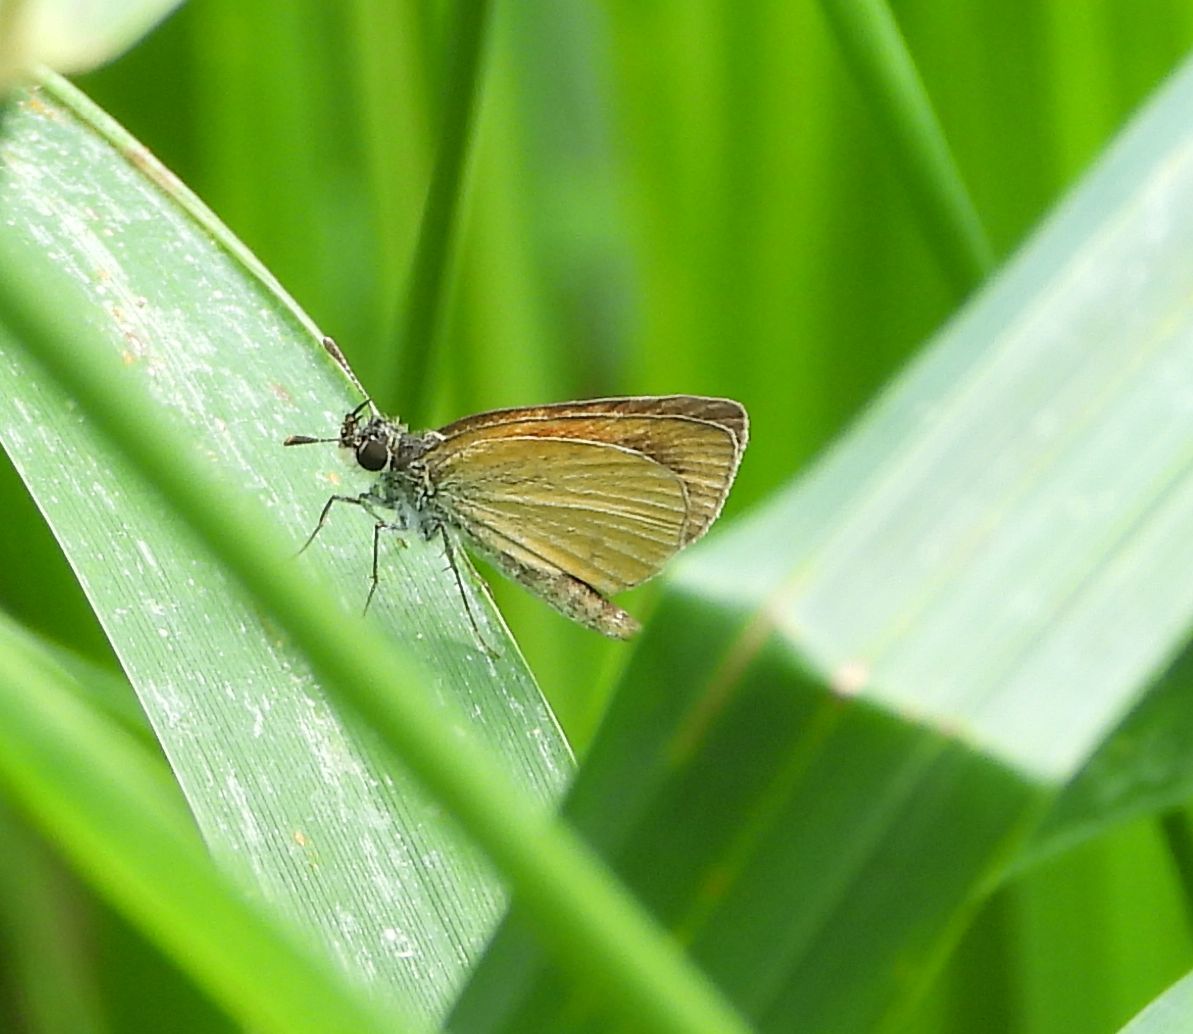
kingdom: Animalia
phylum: Arthropoda
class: Insecta
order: Lepidoptera
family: Hesperiidae
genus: Ancyloxypha
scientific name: Ancyloxypha numitor
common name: Least skipper
